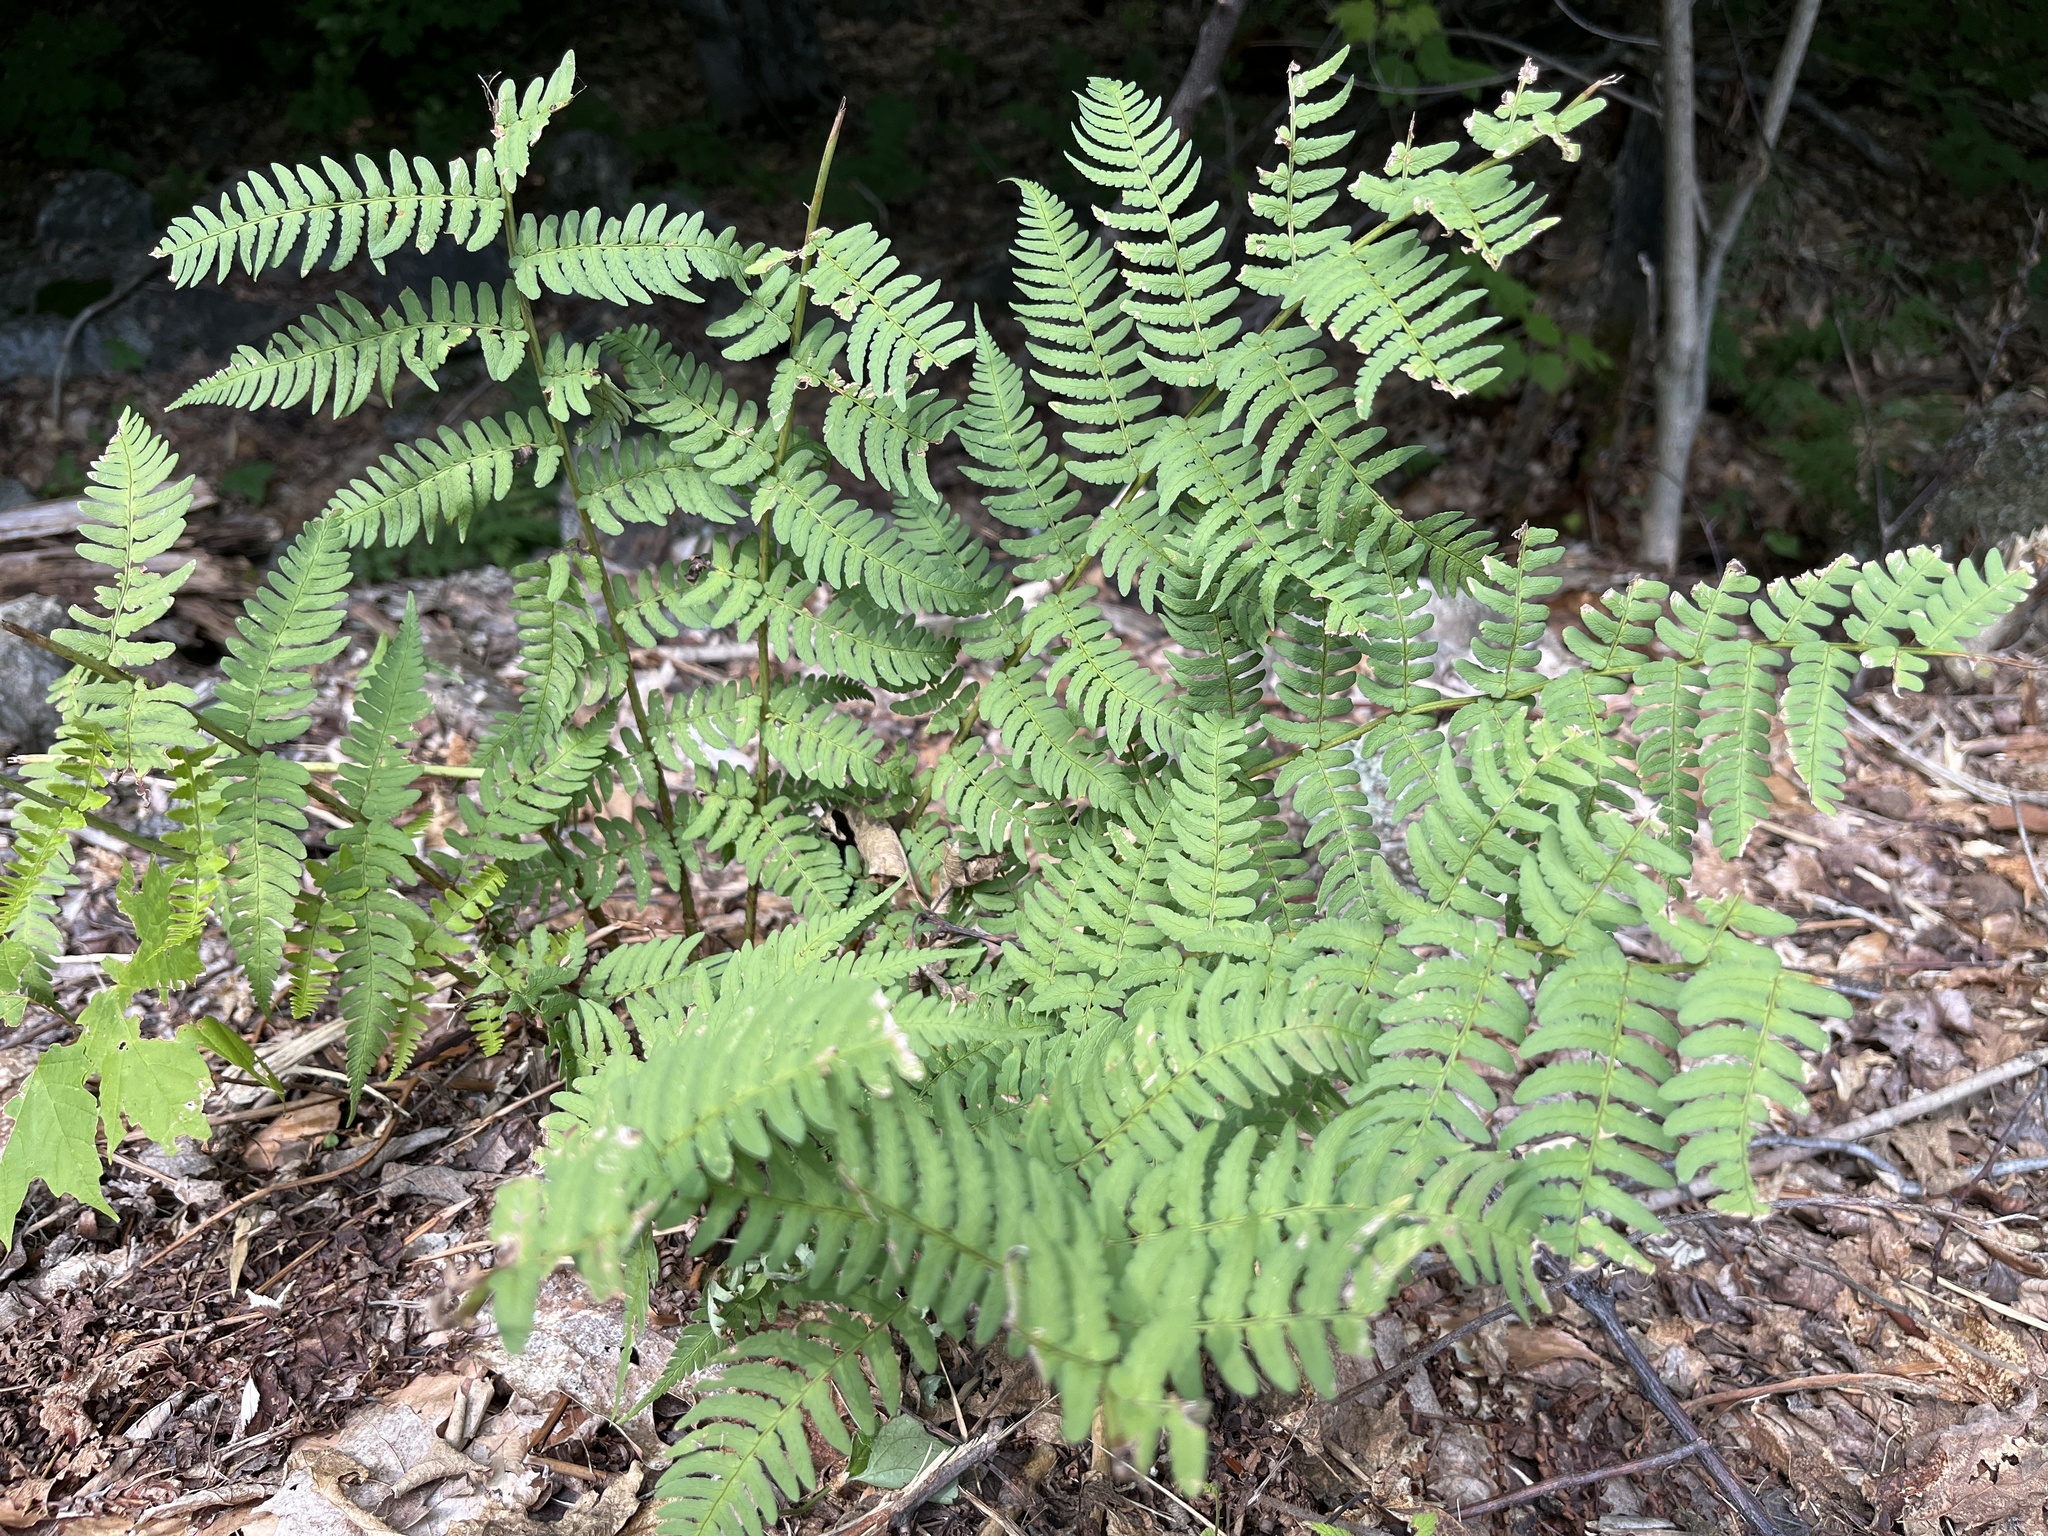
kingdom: Plantae
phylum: Tracheophyta
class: Polypodiopsida
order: Polypodiales
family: Dryopteridaceae
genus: Dryopteris
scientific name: Dryopteris marginalis
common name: Marginal wood fern
